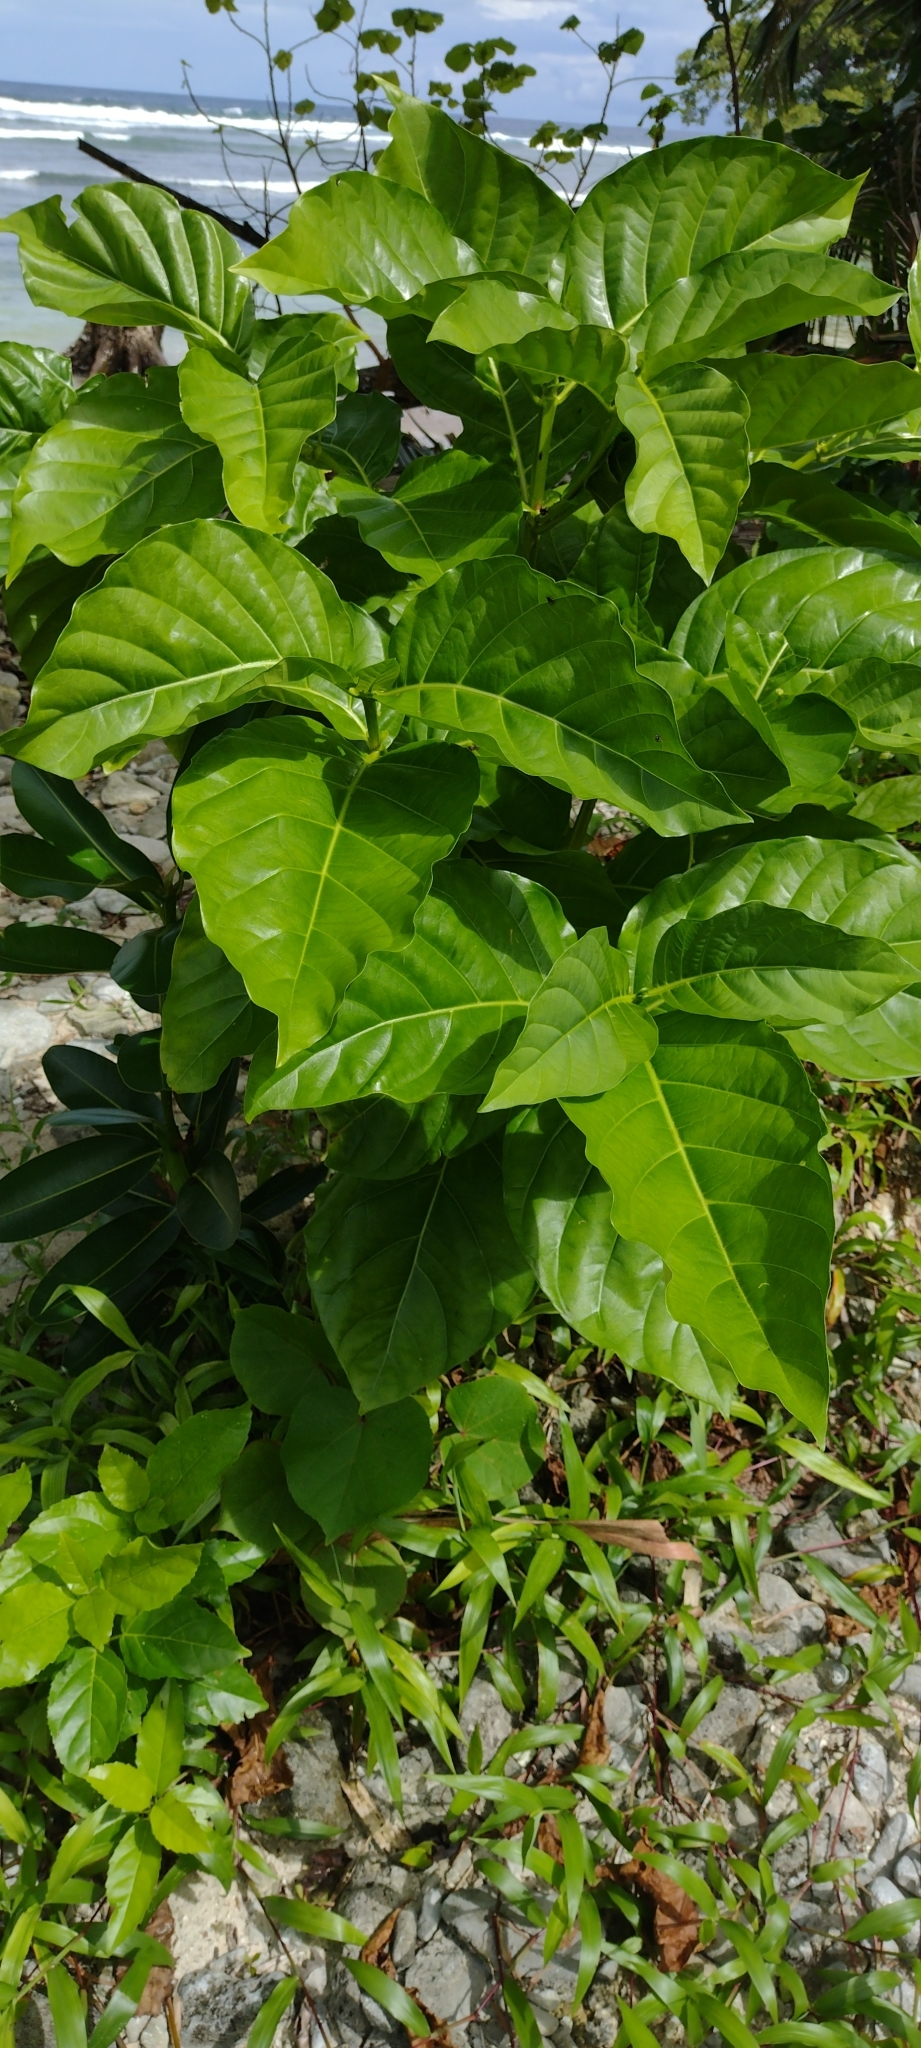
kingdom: Plantae
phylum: Tracheophyta
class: Magnoliopsida
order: Gentianales
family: Rubiaceae
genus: Morinda
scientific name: Morinda citrifolia
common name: Indian-mulberry
